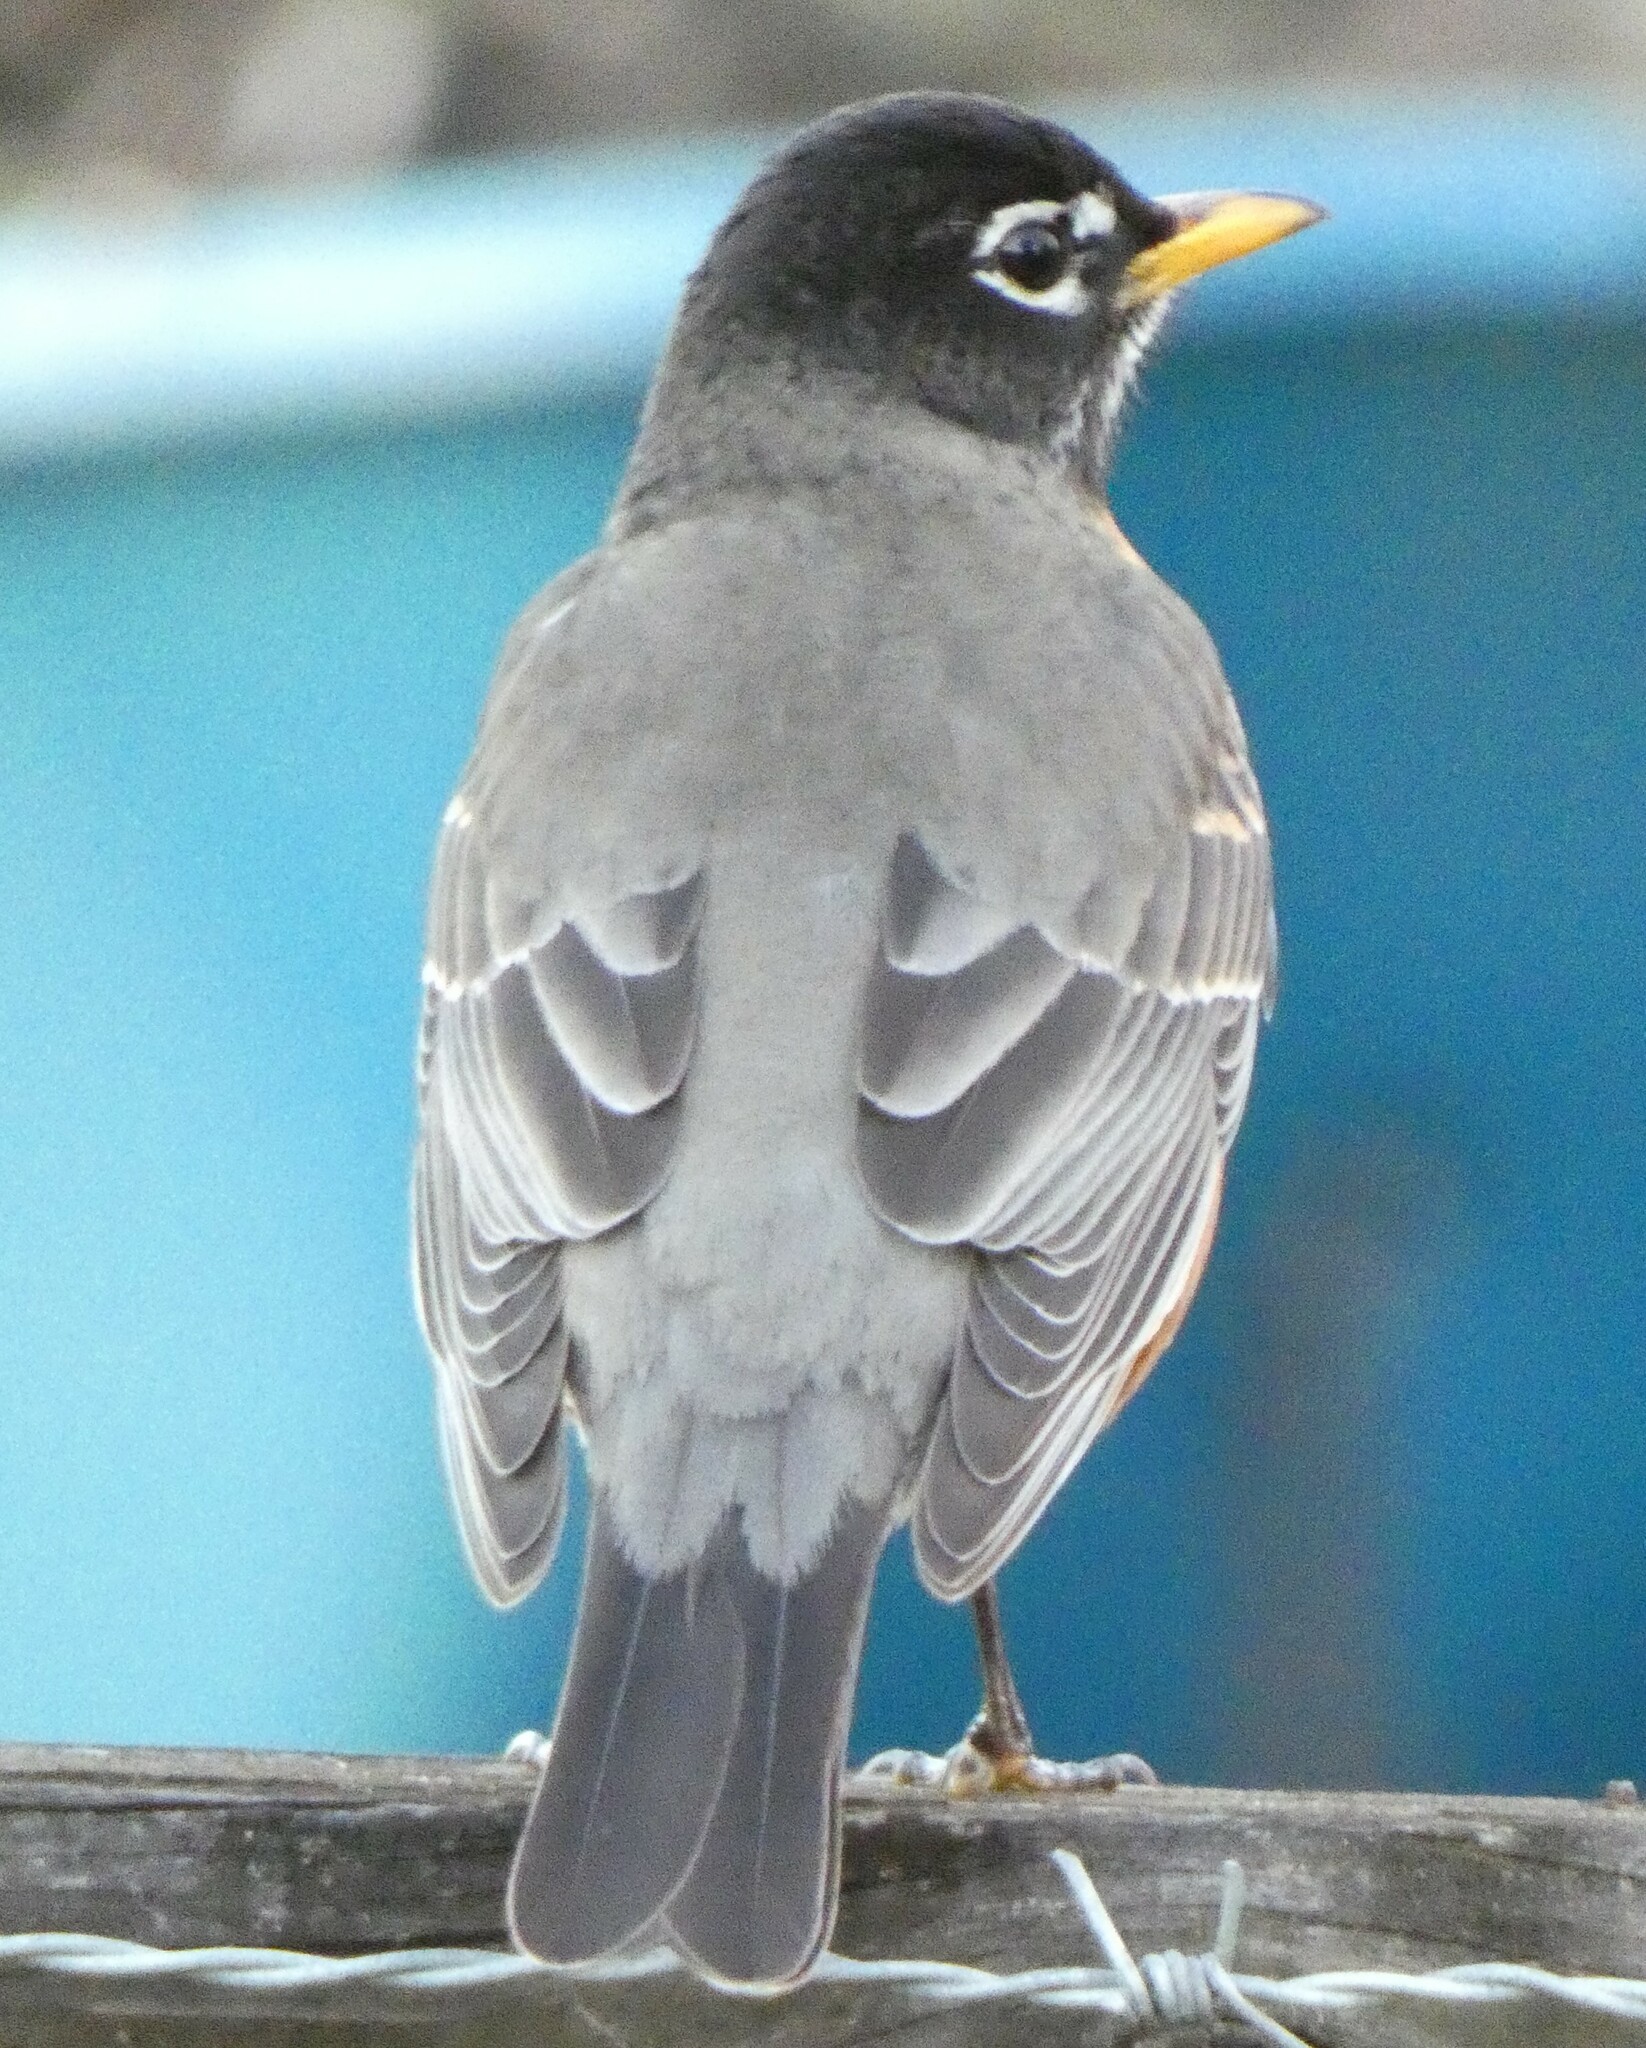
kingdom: Animalia
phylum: Chordata
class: Aves
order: Passeriformes
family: Turdidae
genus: Turdus
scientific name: Turdus migratorius
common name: American robin
